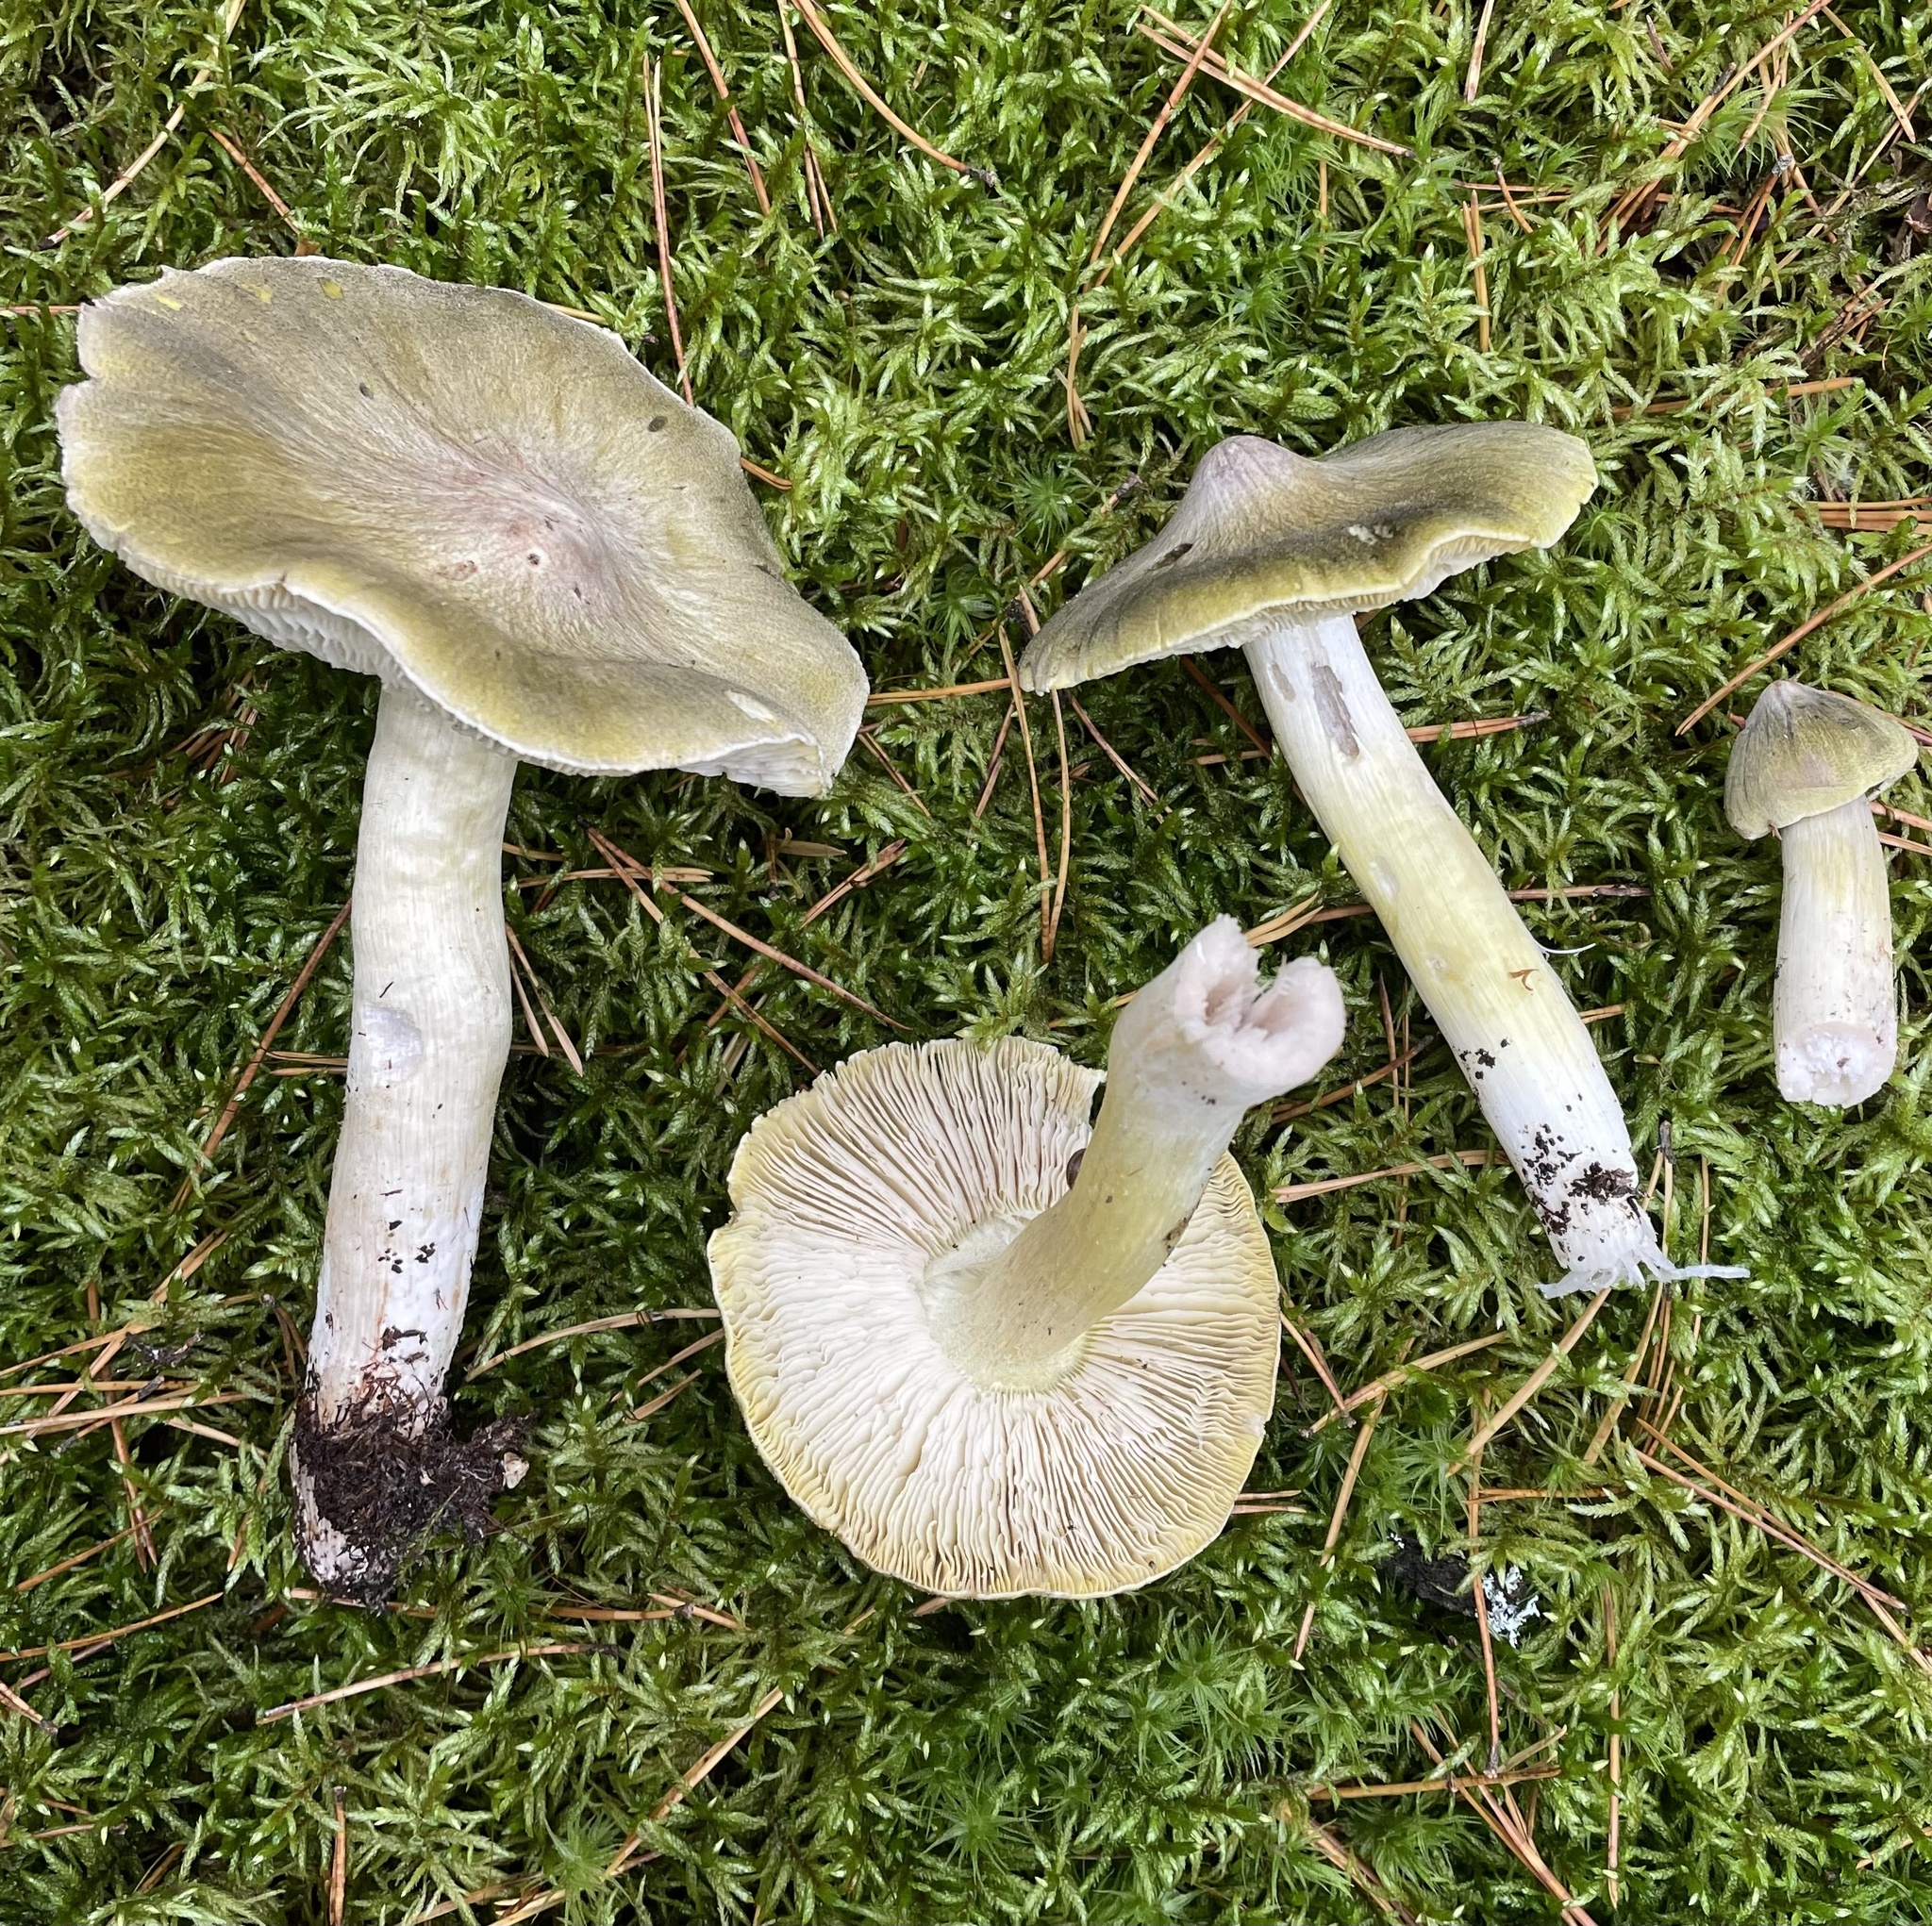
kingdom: Fungi
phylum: Basidiomycota
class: Agaricomycetes
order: Agaricales
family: Tricholomataceae
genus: Melanoleuca
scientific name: Melanoleuca davisiae
